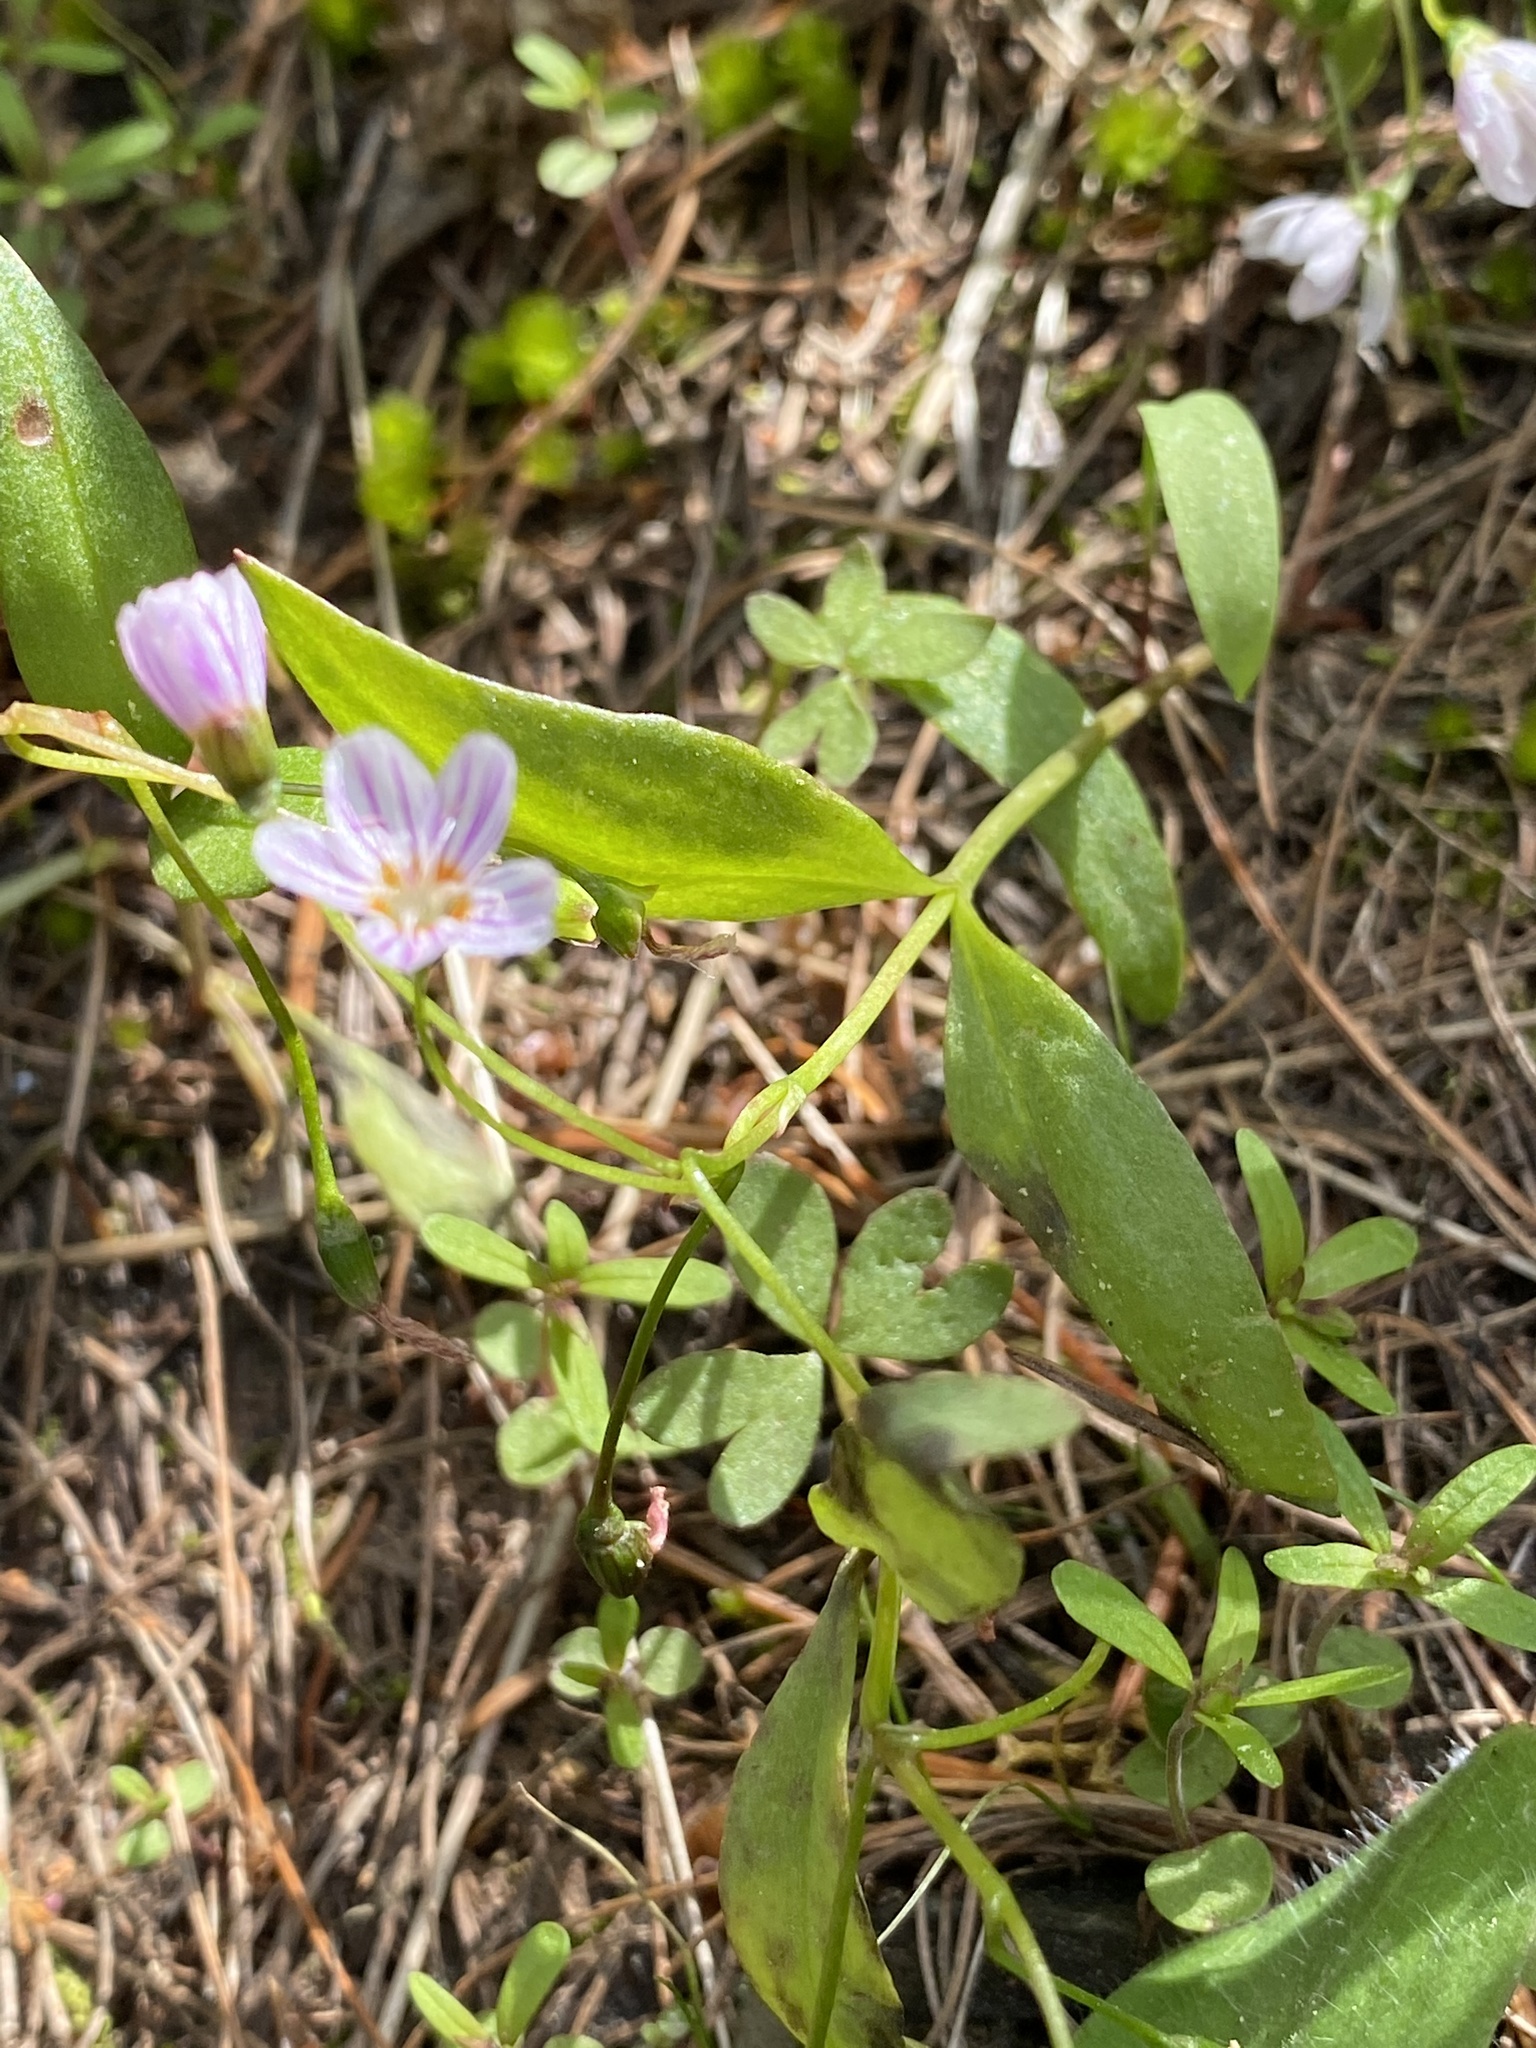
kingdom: Plantae
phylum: Tracheophyta
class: Magnoliopsida
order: Caryophyllales
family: Montiaceae
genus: Claytonia
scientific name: Claytonia lanceolata
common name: Western spring-beauty
